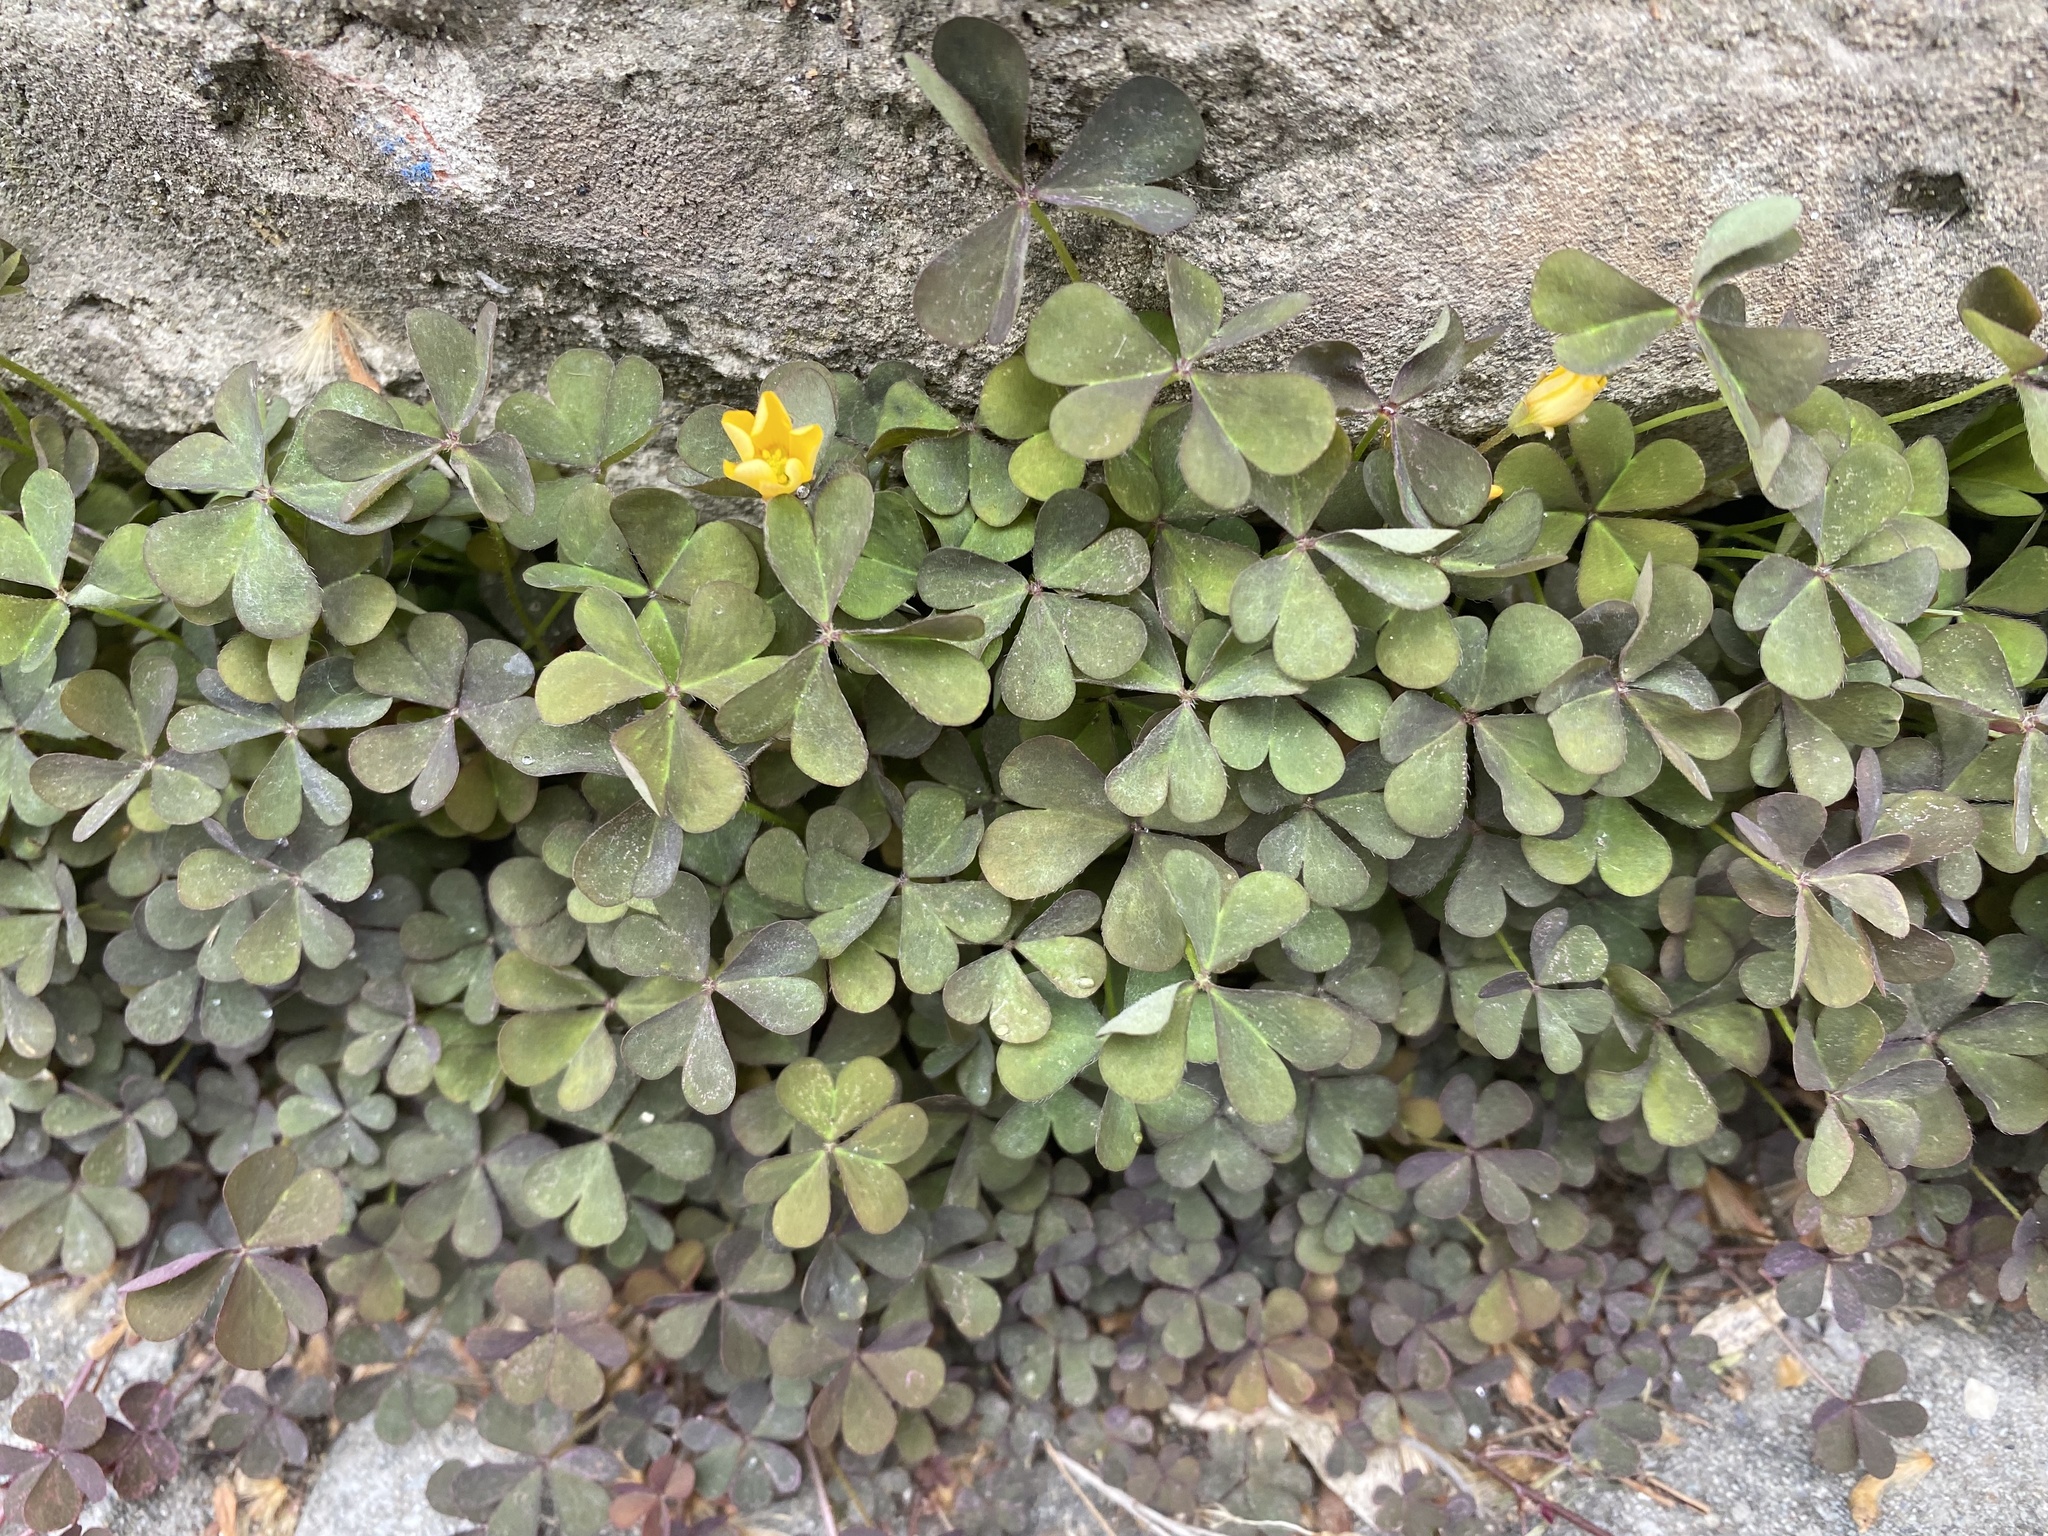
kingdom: Plantae
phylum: Tracheophyta
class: Magnoliopsida
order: Oxalidales
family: Oxalidaceae
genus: Oxalis
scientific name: Oxalis corniculata
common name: Procumbent yellow-sorrel
